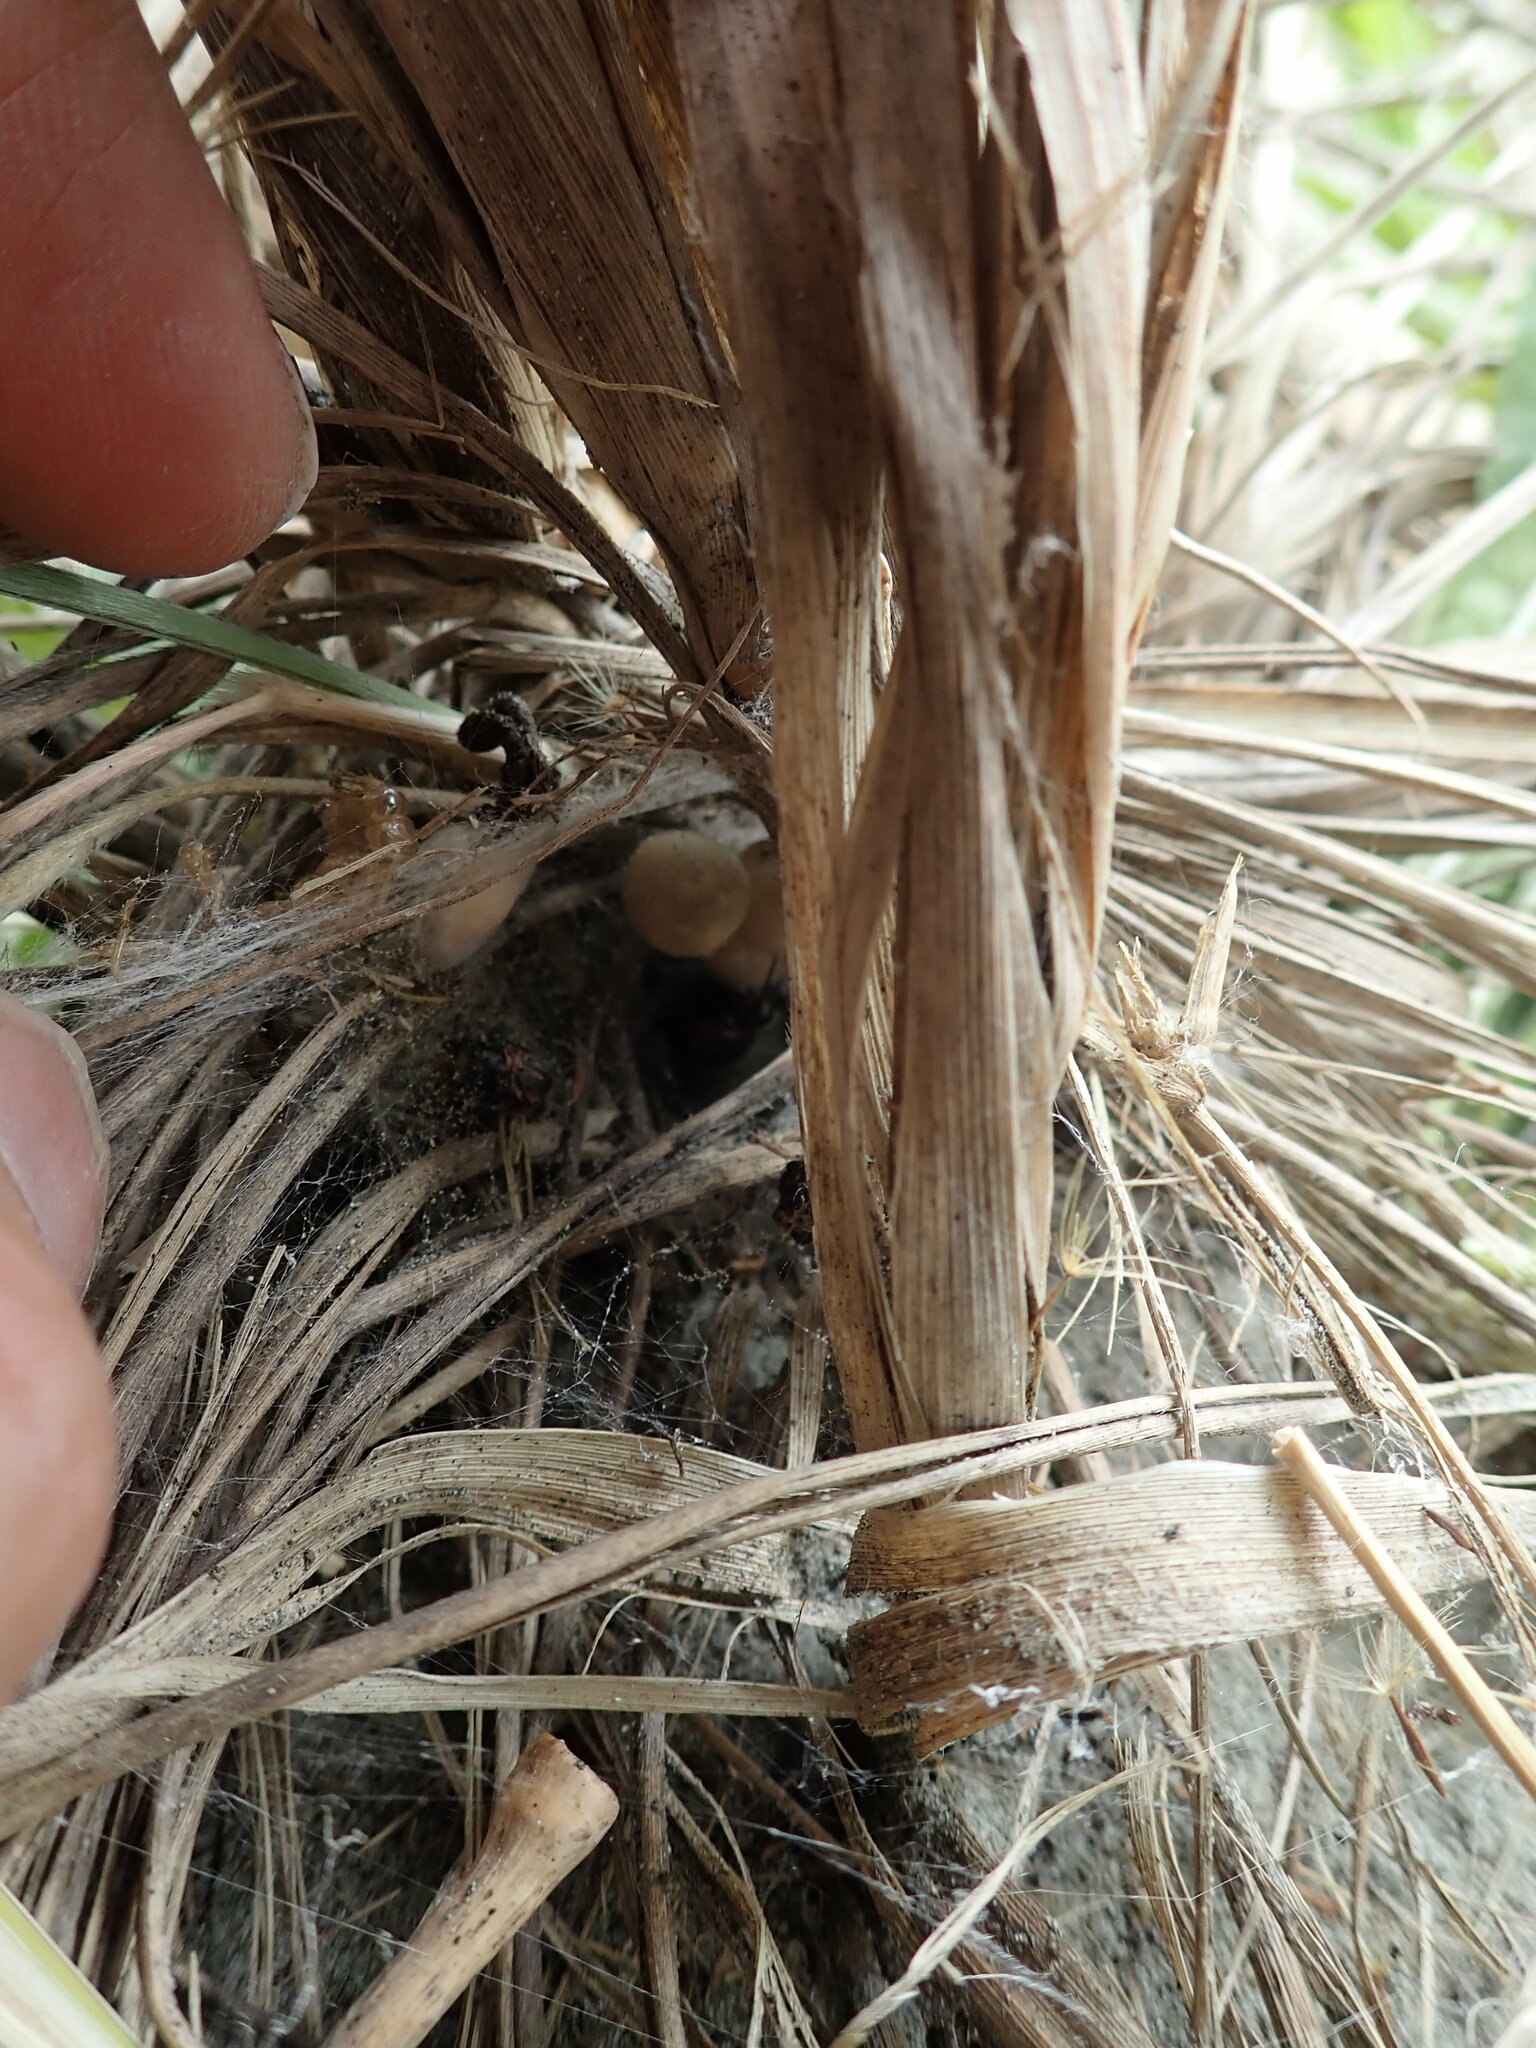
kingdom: Plantae
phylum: Tracheophyta
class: Magnoliopsida
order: Malpighiales
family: Euphorbiaceae
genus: Euphorbia
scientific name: Euphorbia paralias
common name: Sea spurge
